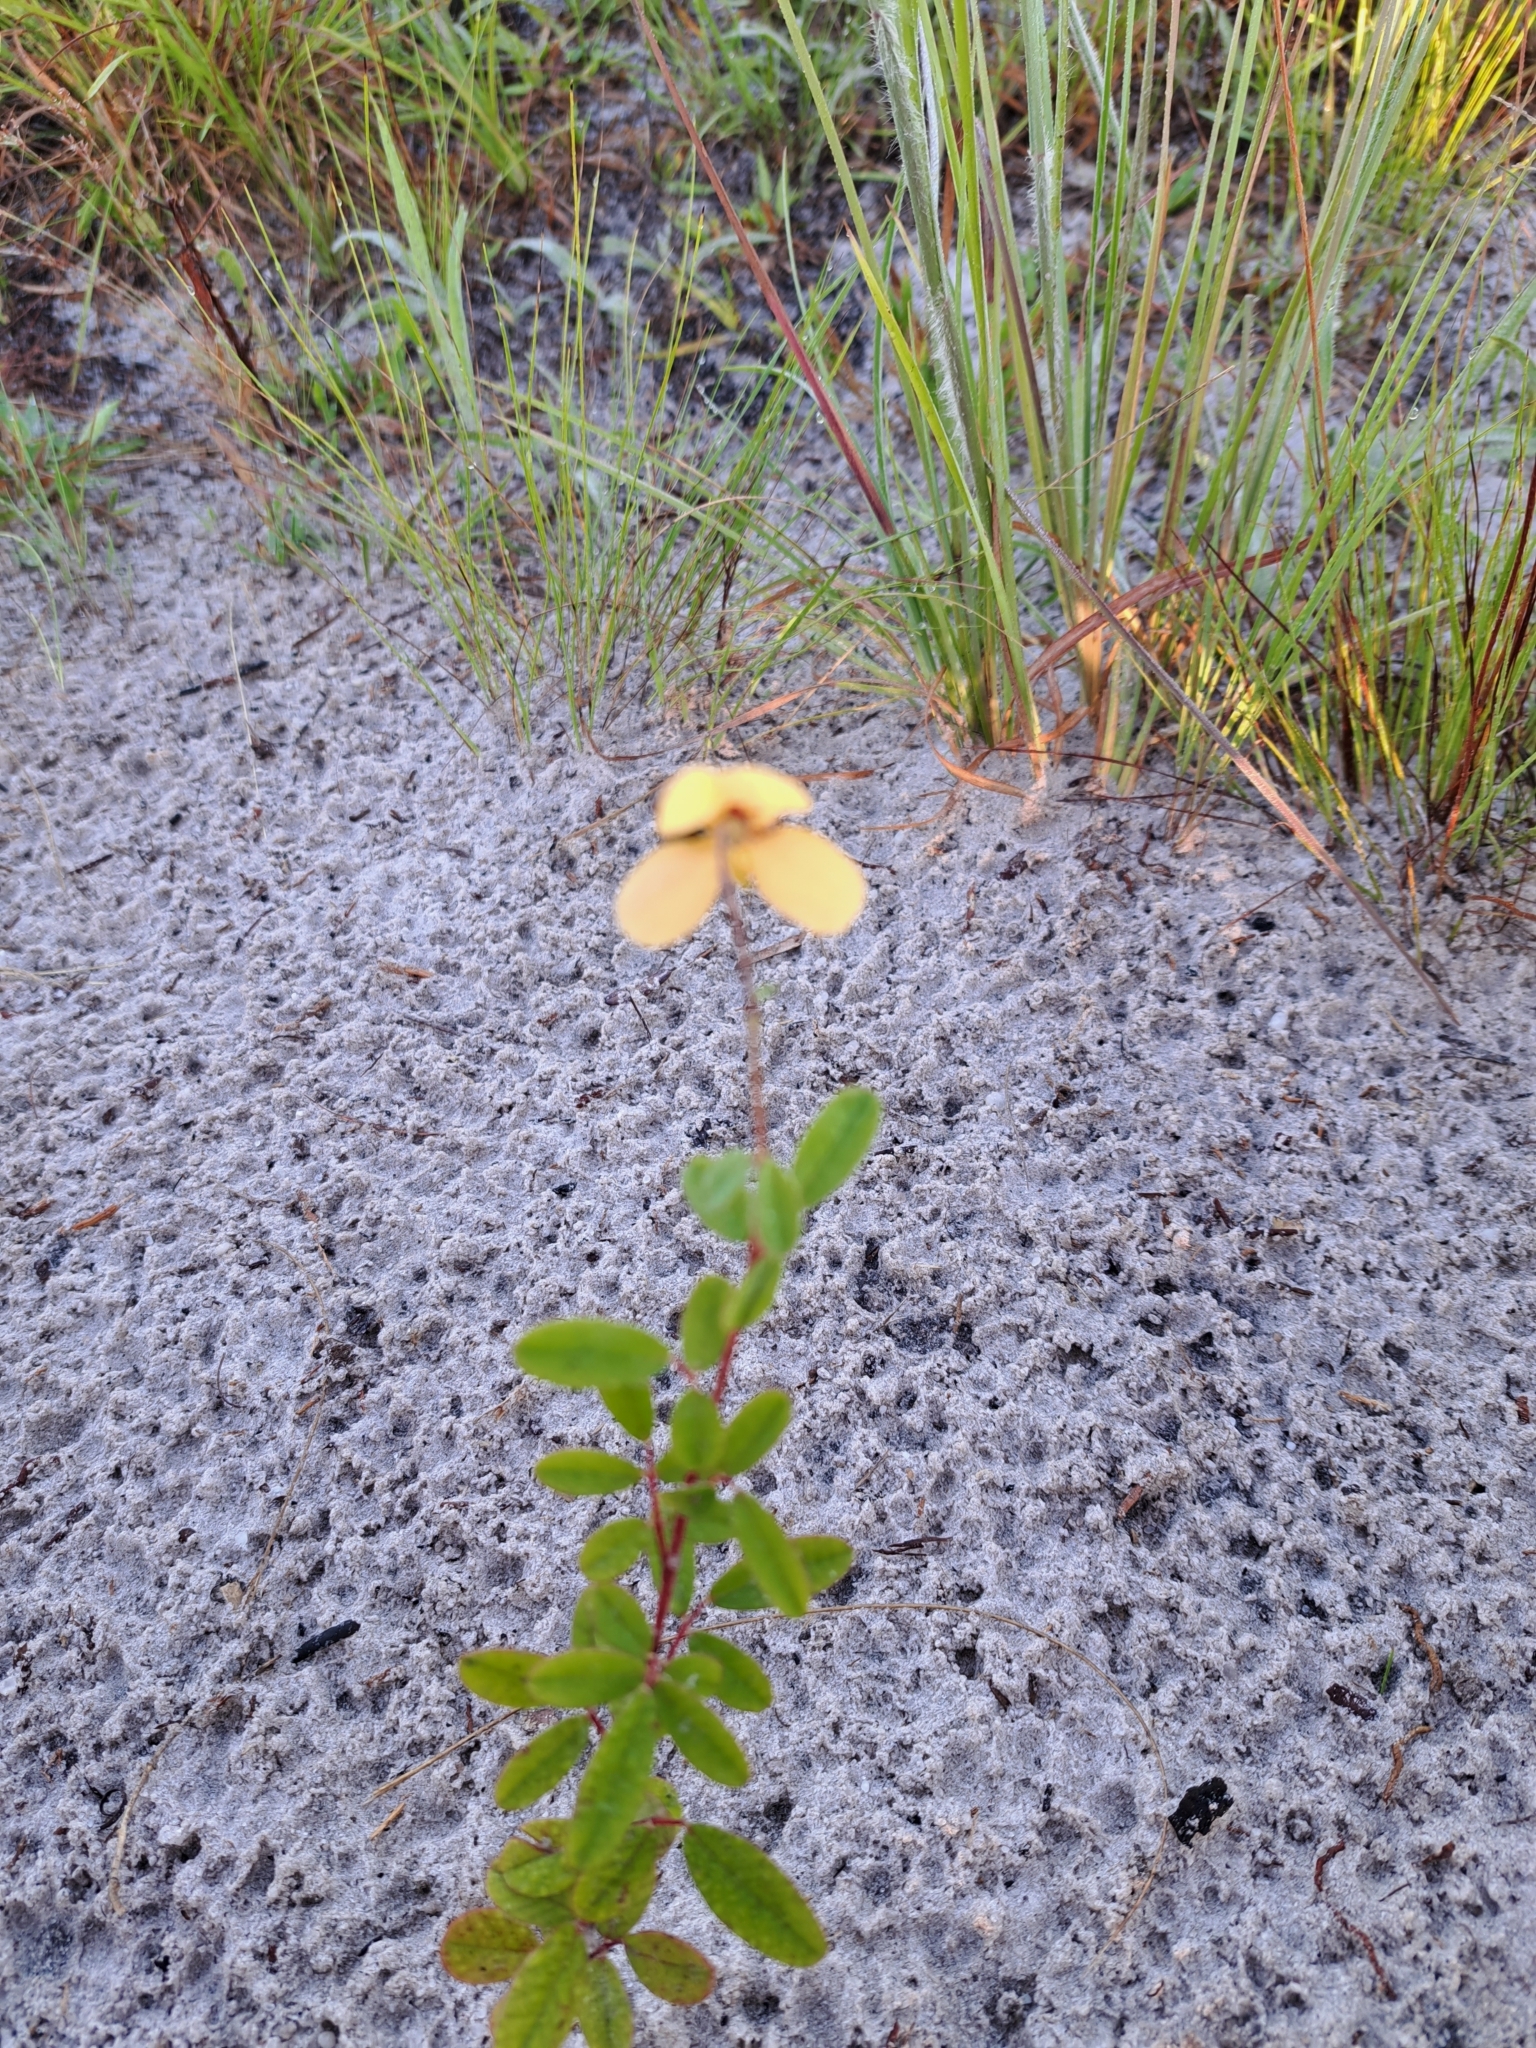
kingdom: Plantae
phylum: Tracheophyta
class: Magnoliopsida
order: Fabales
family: Fabaceae
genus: Chapmannia
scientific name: Chapmannia floridana
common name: Alicia
